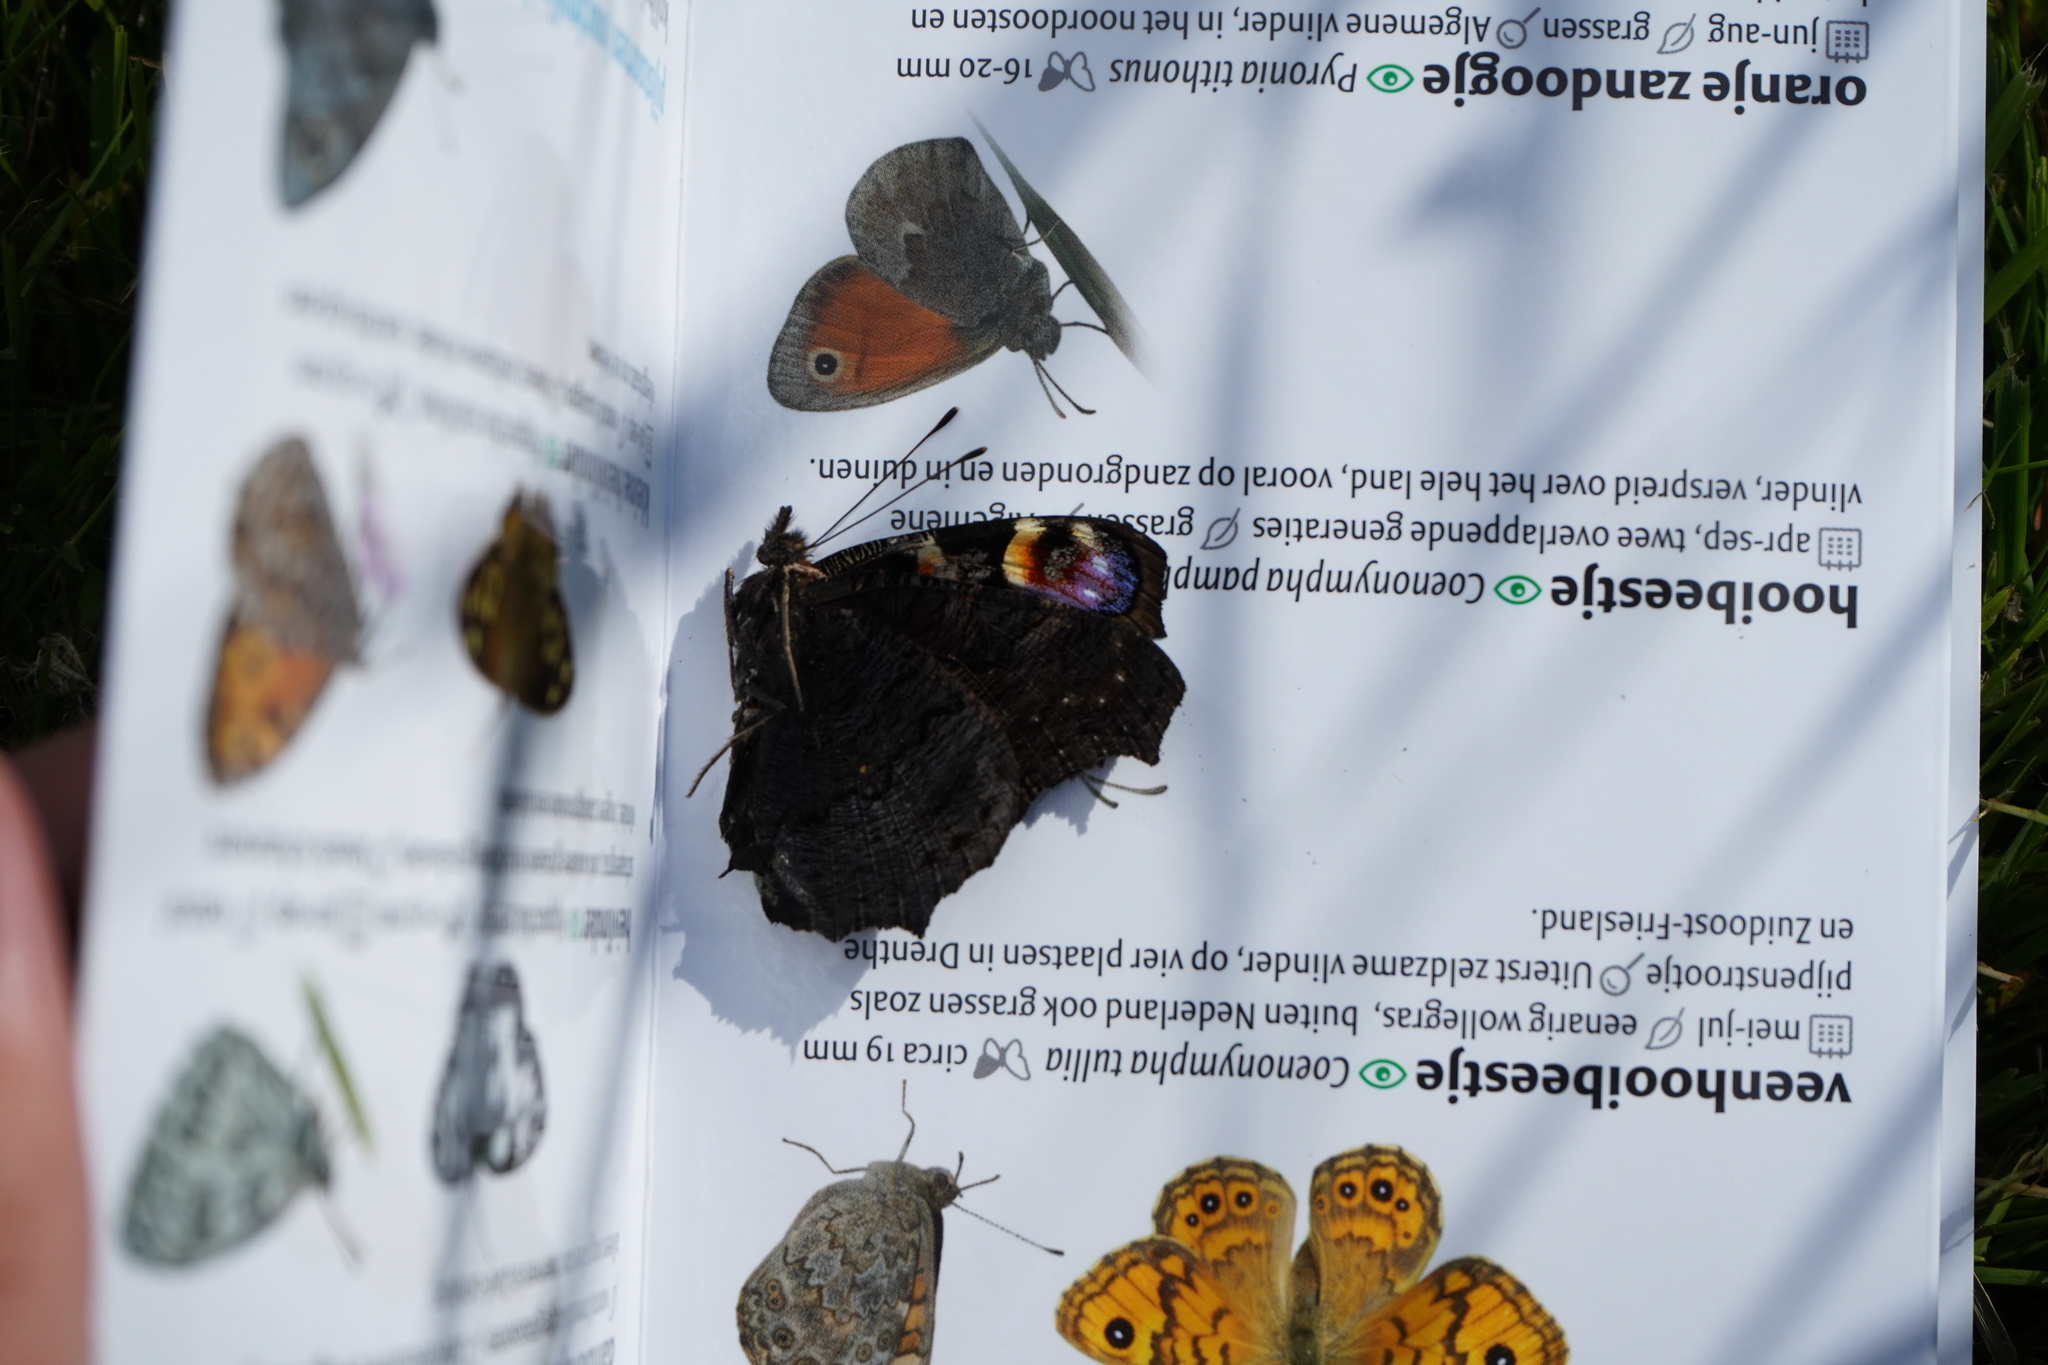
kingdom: Animalia
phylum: Arthropoda
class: Insecta
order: Lepidoptera
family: Nymphalidae
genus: Aglais
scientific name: Aglais io
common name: Peacock
